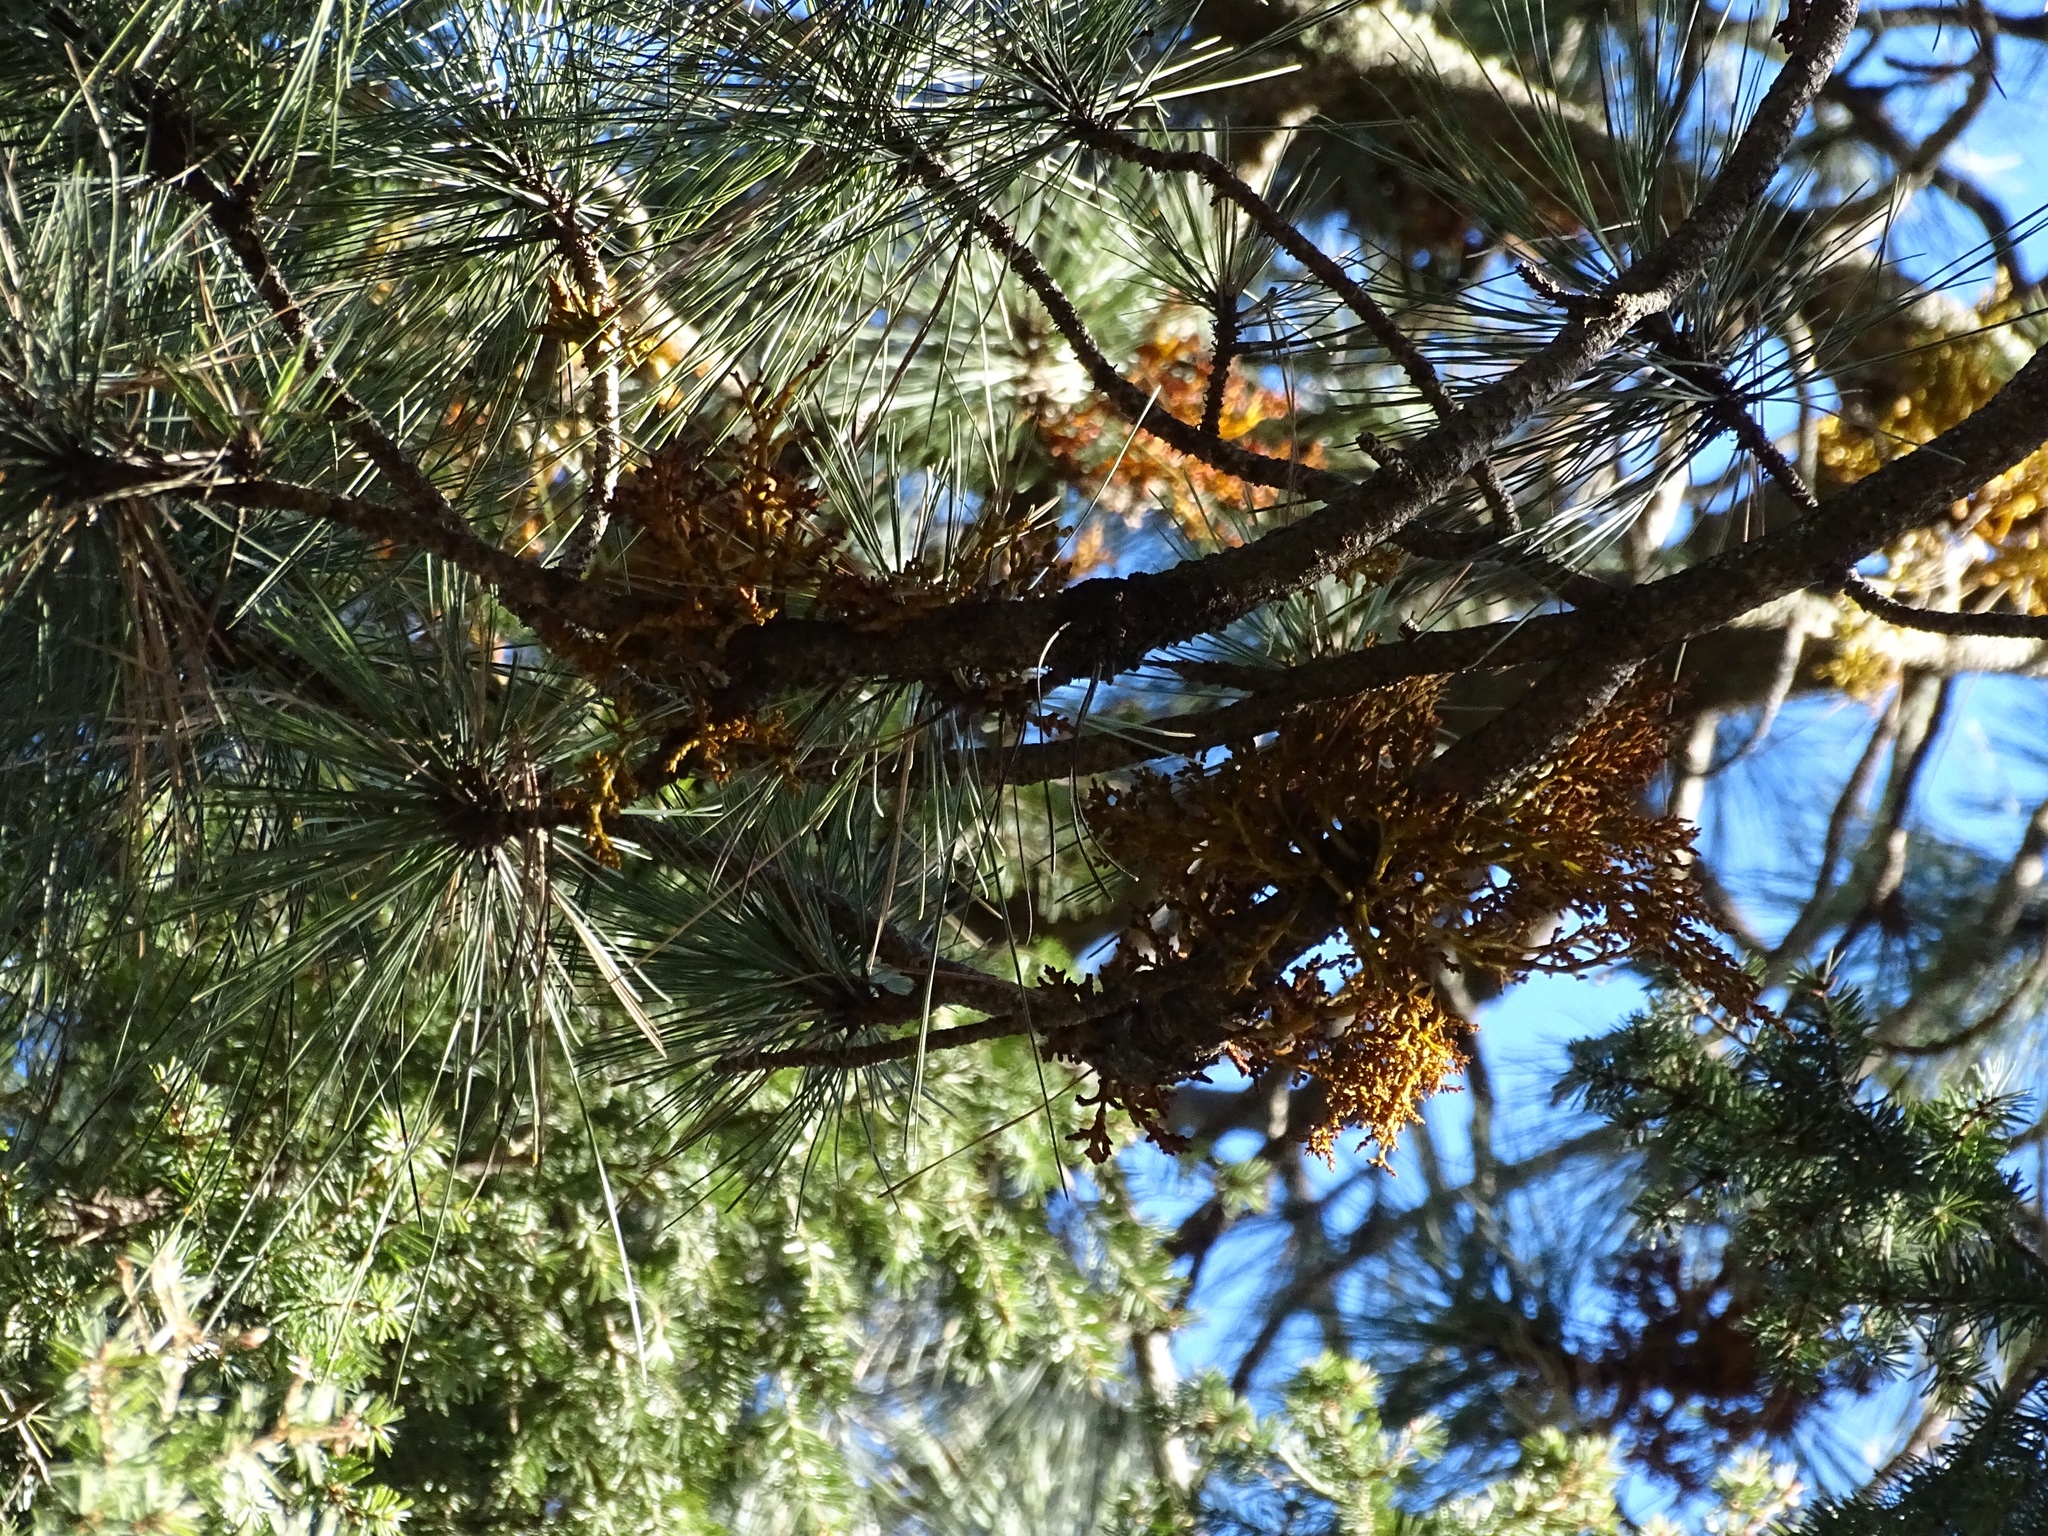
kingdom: Plantae
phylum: Tracheophyta
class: Magnoliopsida
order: Santalales
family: Viscaceae
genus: Arceuthobium
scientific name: Arceuthobium vaginatum
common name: Southwestern dwarf-mistletoe
